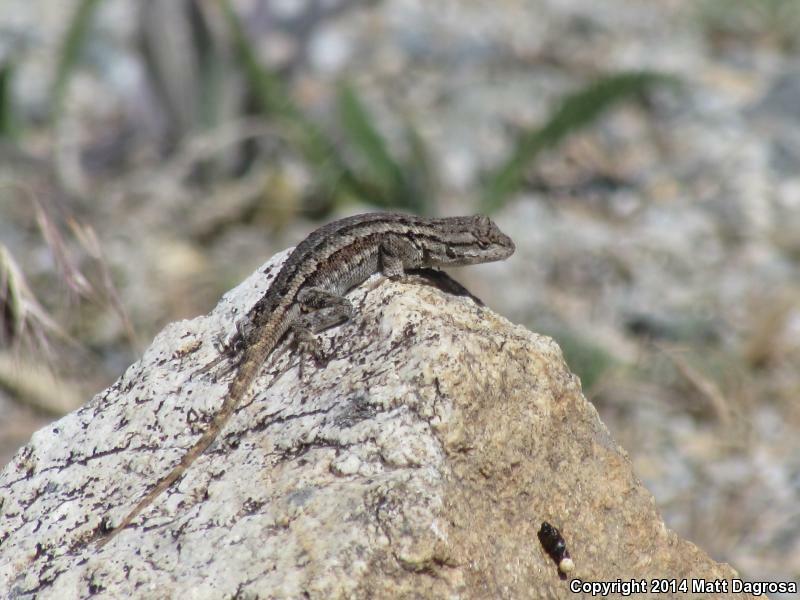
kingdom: Animalia
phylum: Chordata
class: Squamata
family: Phrynosomatidae
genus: Sceloporus
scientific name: Sceloporus occidentalis
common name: Western fence lizard
